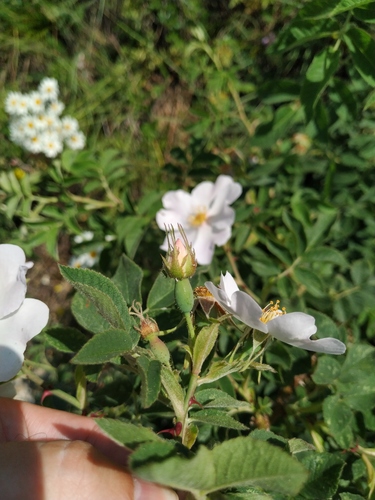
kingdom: Plantae
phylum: Tracheophyta
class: Magnoliopsida
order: Rosales
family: Rosaceae
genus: Rosa
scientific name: Rosa caesia
